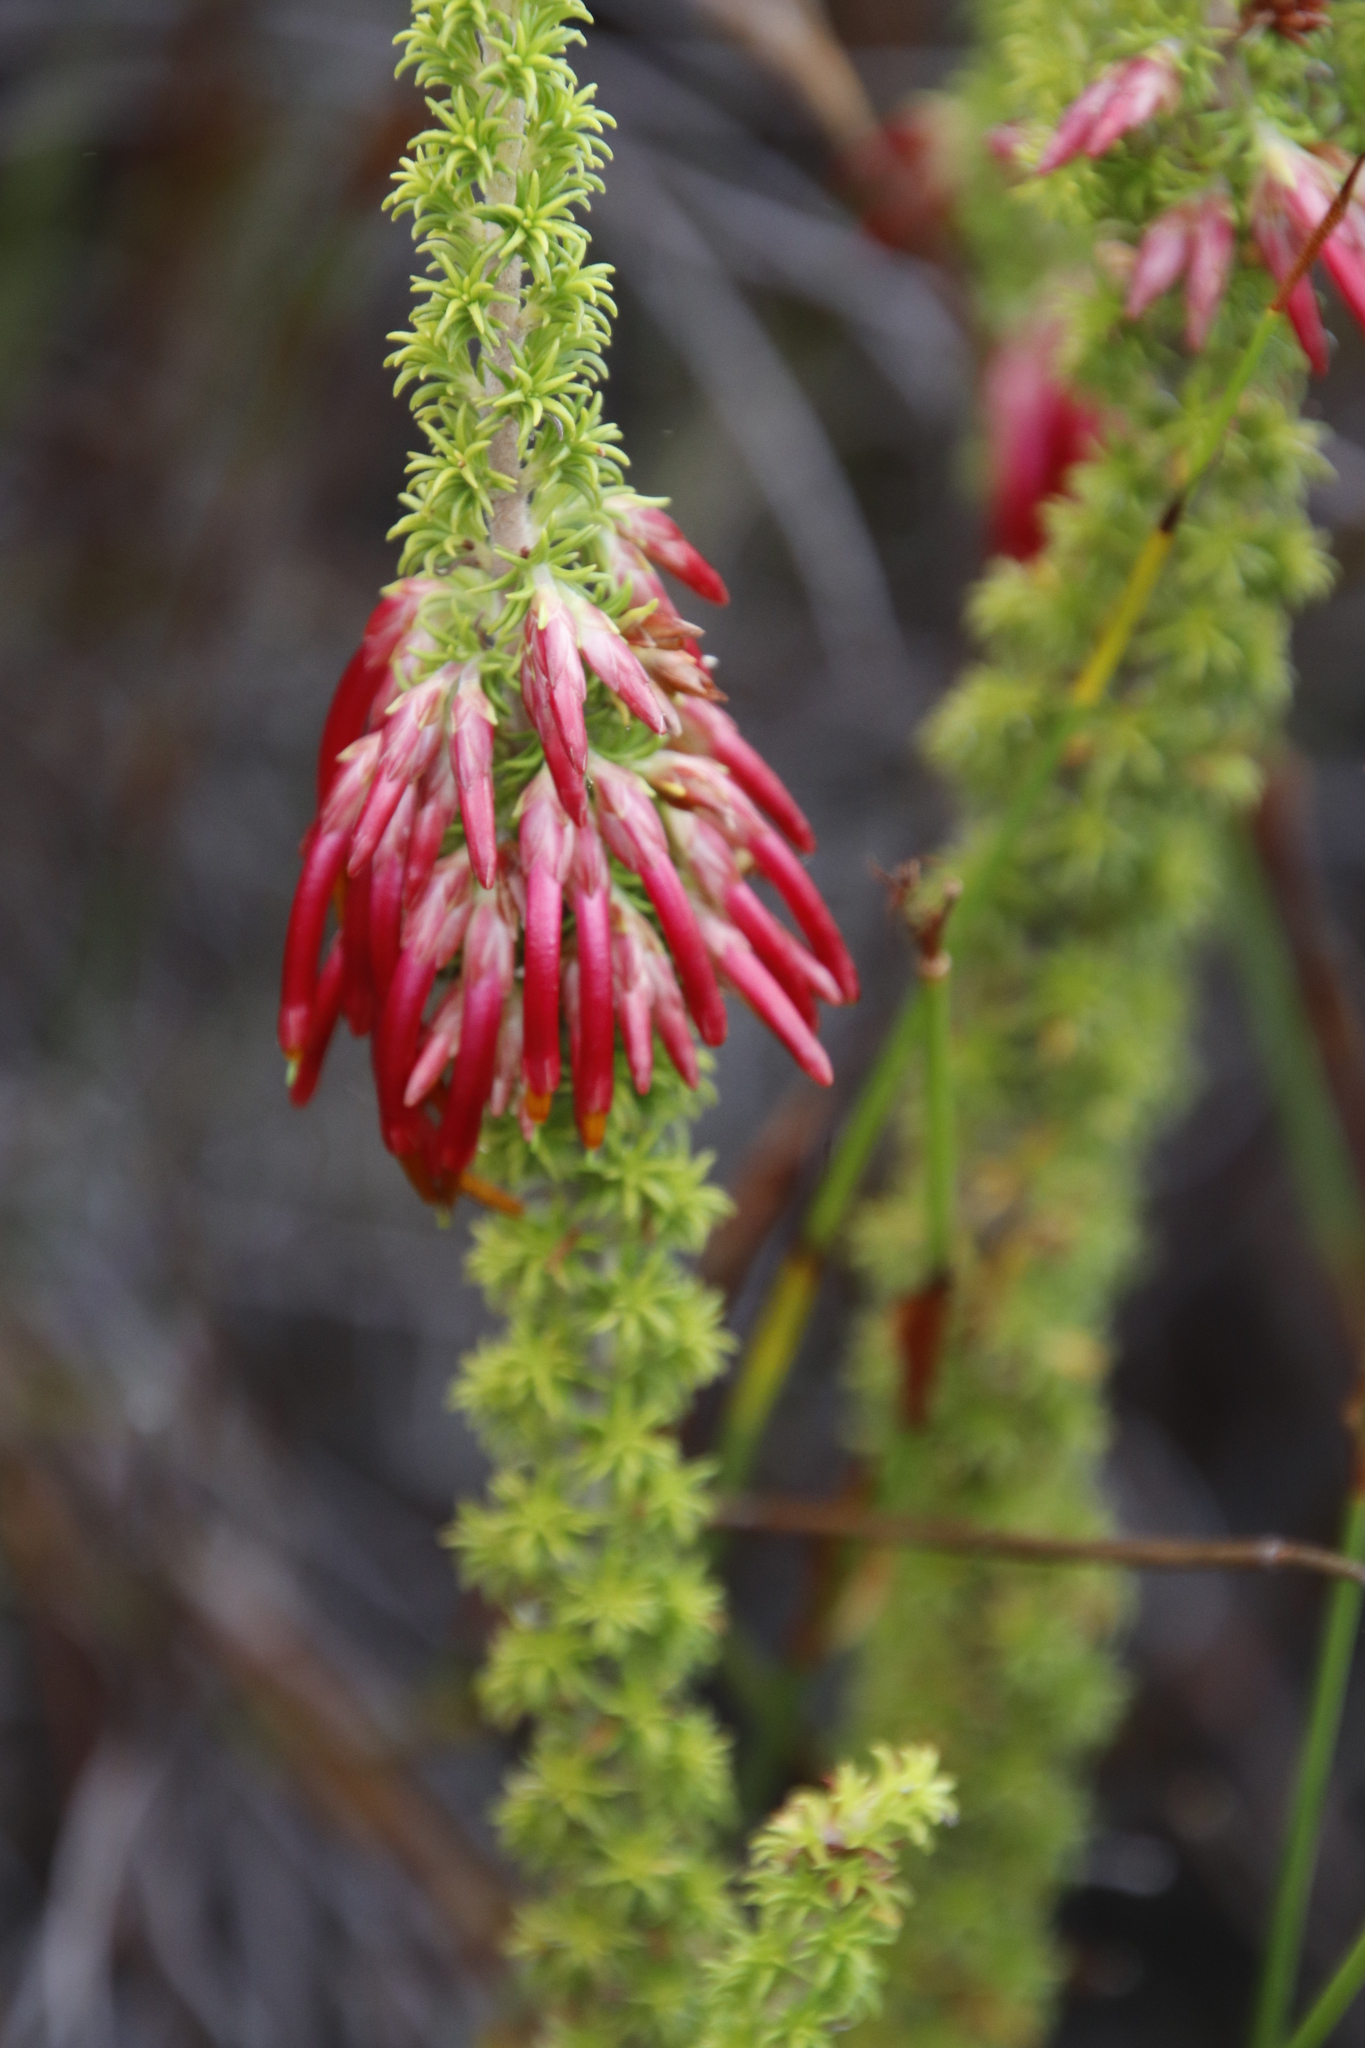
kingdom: Plantae
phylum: Tracheophyta
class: Magnoliopsida
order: Ericales
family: Ericaceae
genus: Erica
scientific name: Erica coccinea
